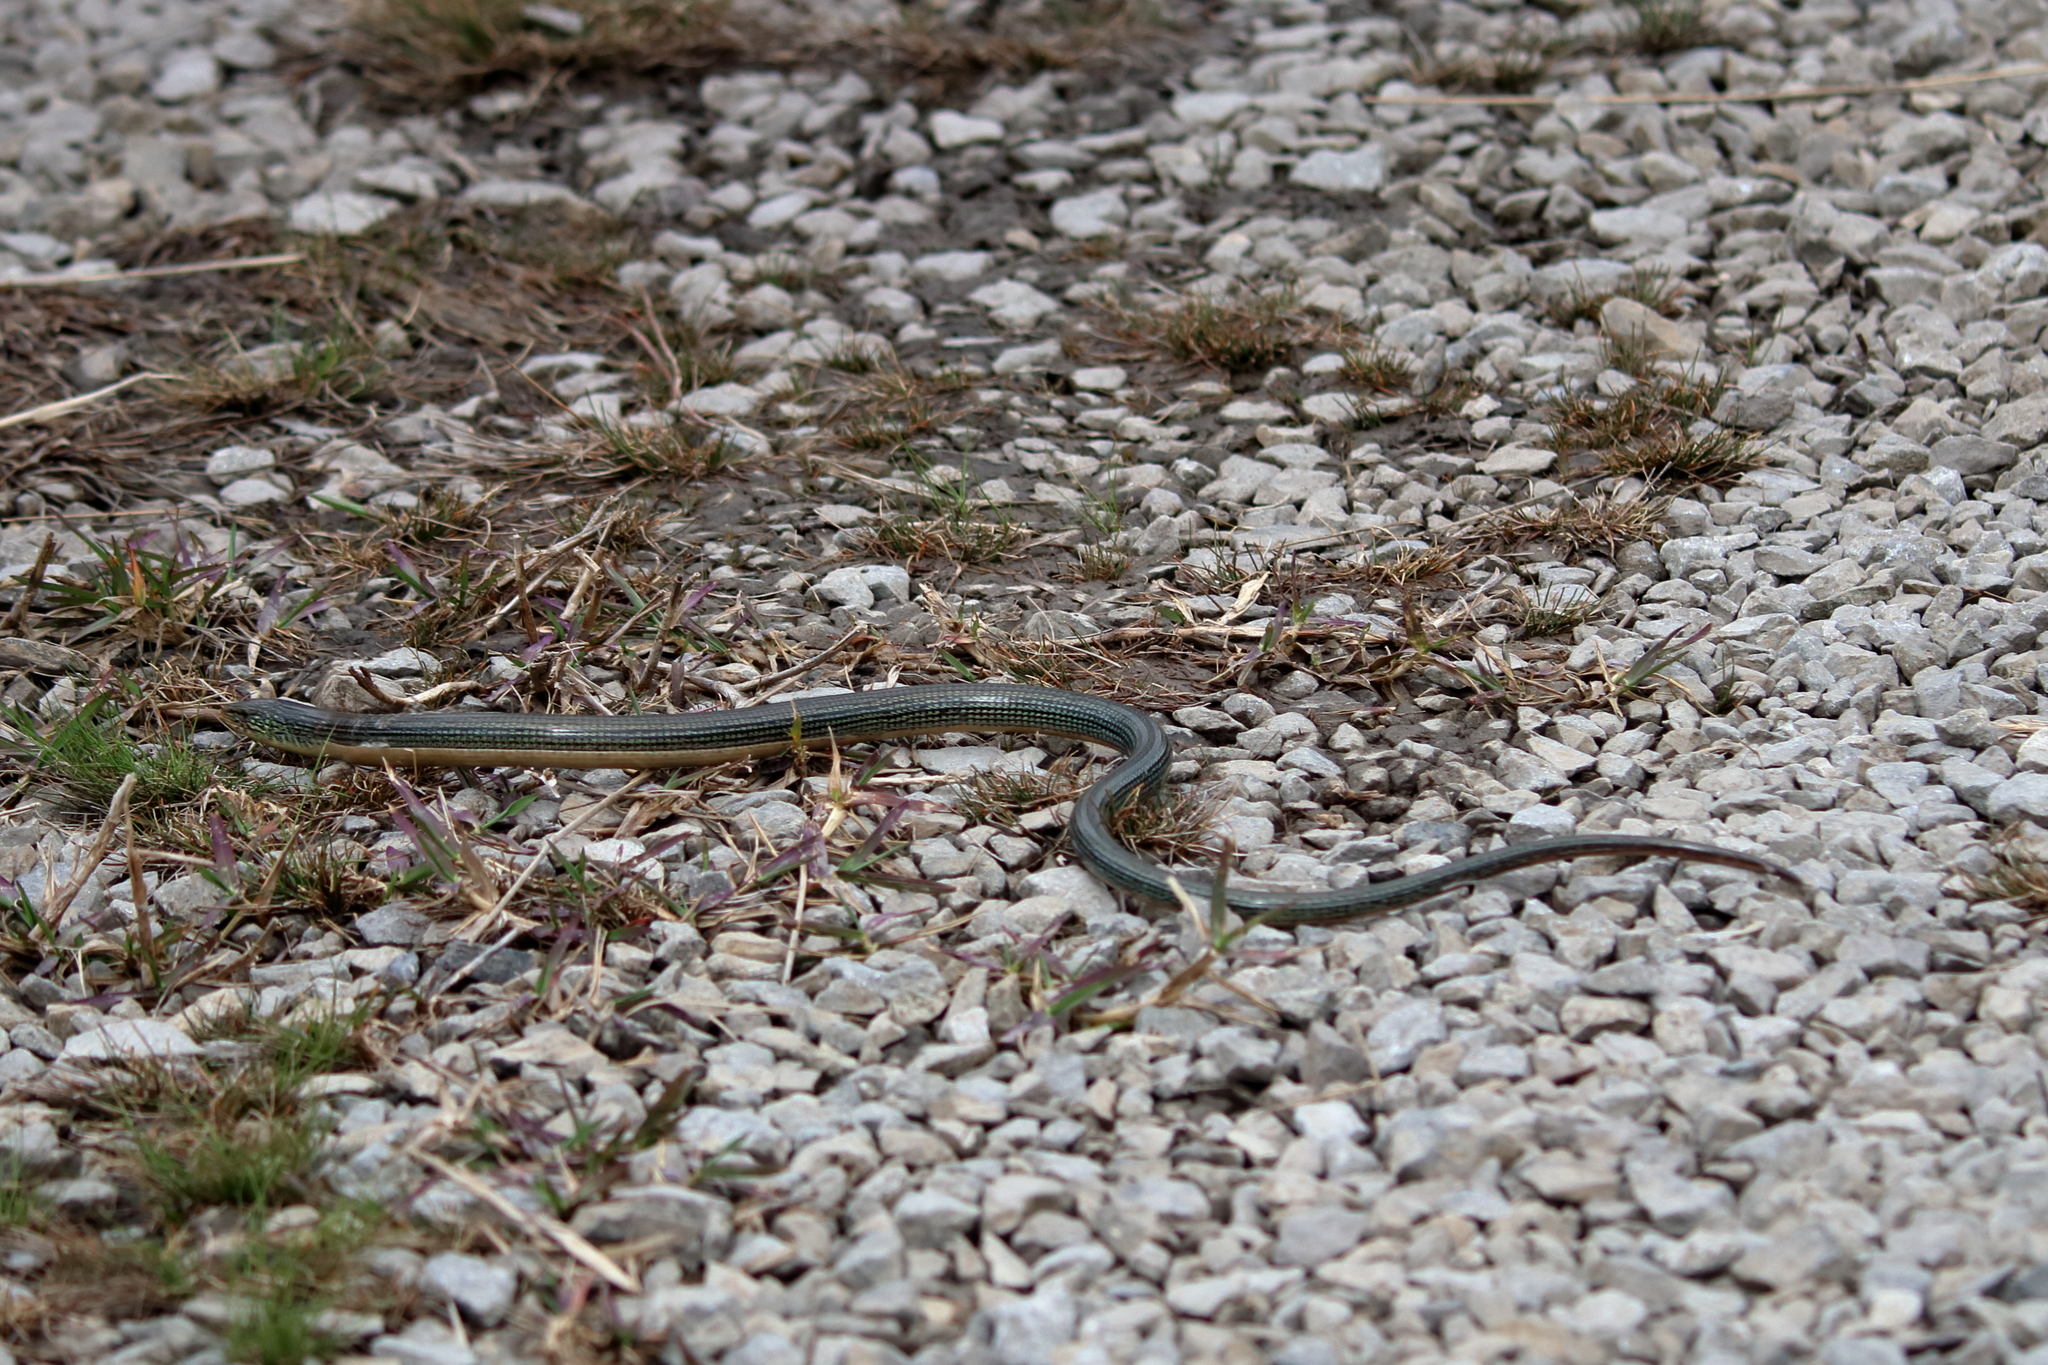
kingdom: Animalia
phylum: Chordata
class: Squamata
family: Anguidae
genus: Ophisaurus
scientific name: Ophisaurus ventralis
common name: Eastern glass lizard
